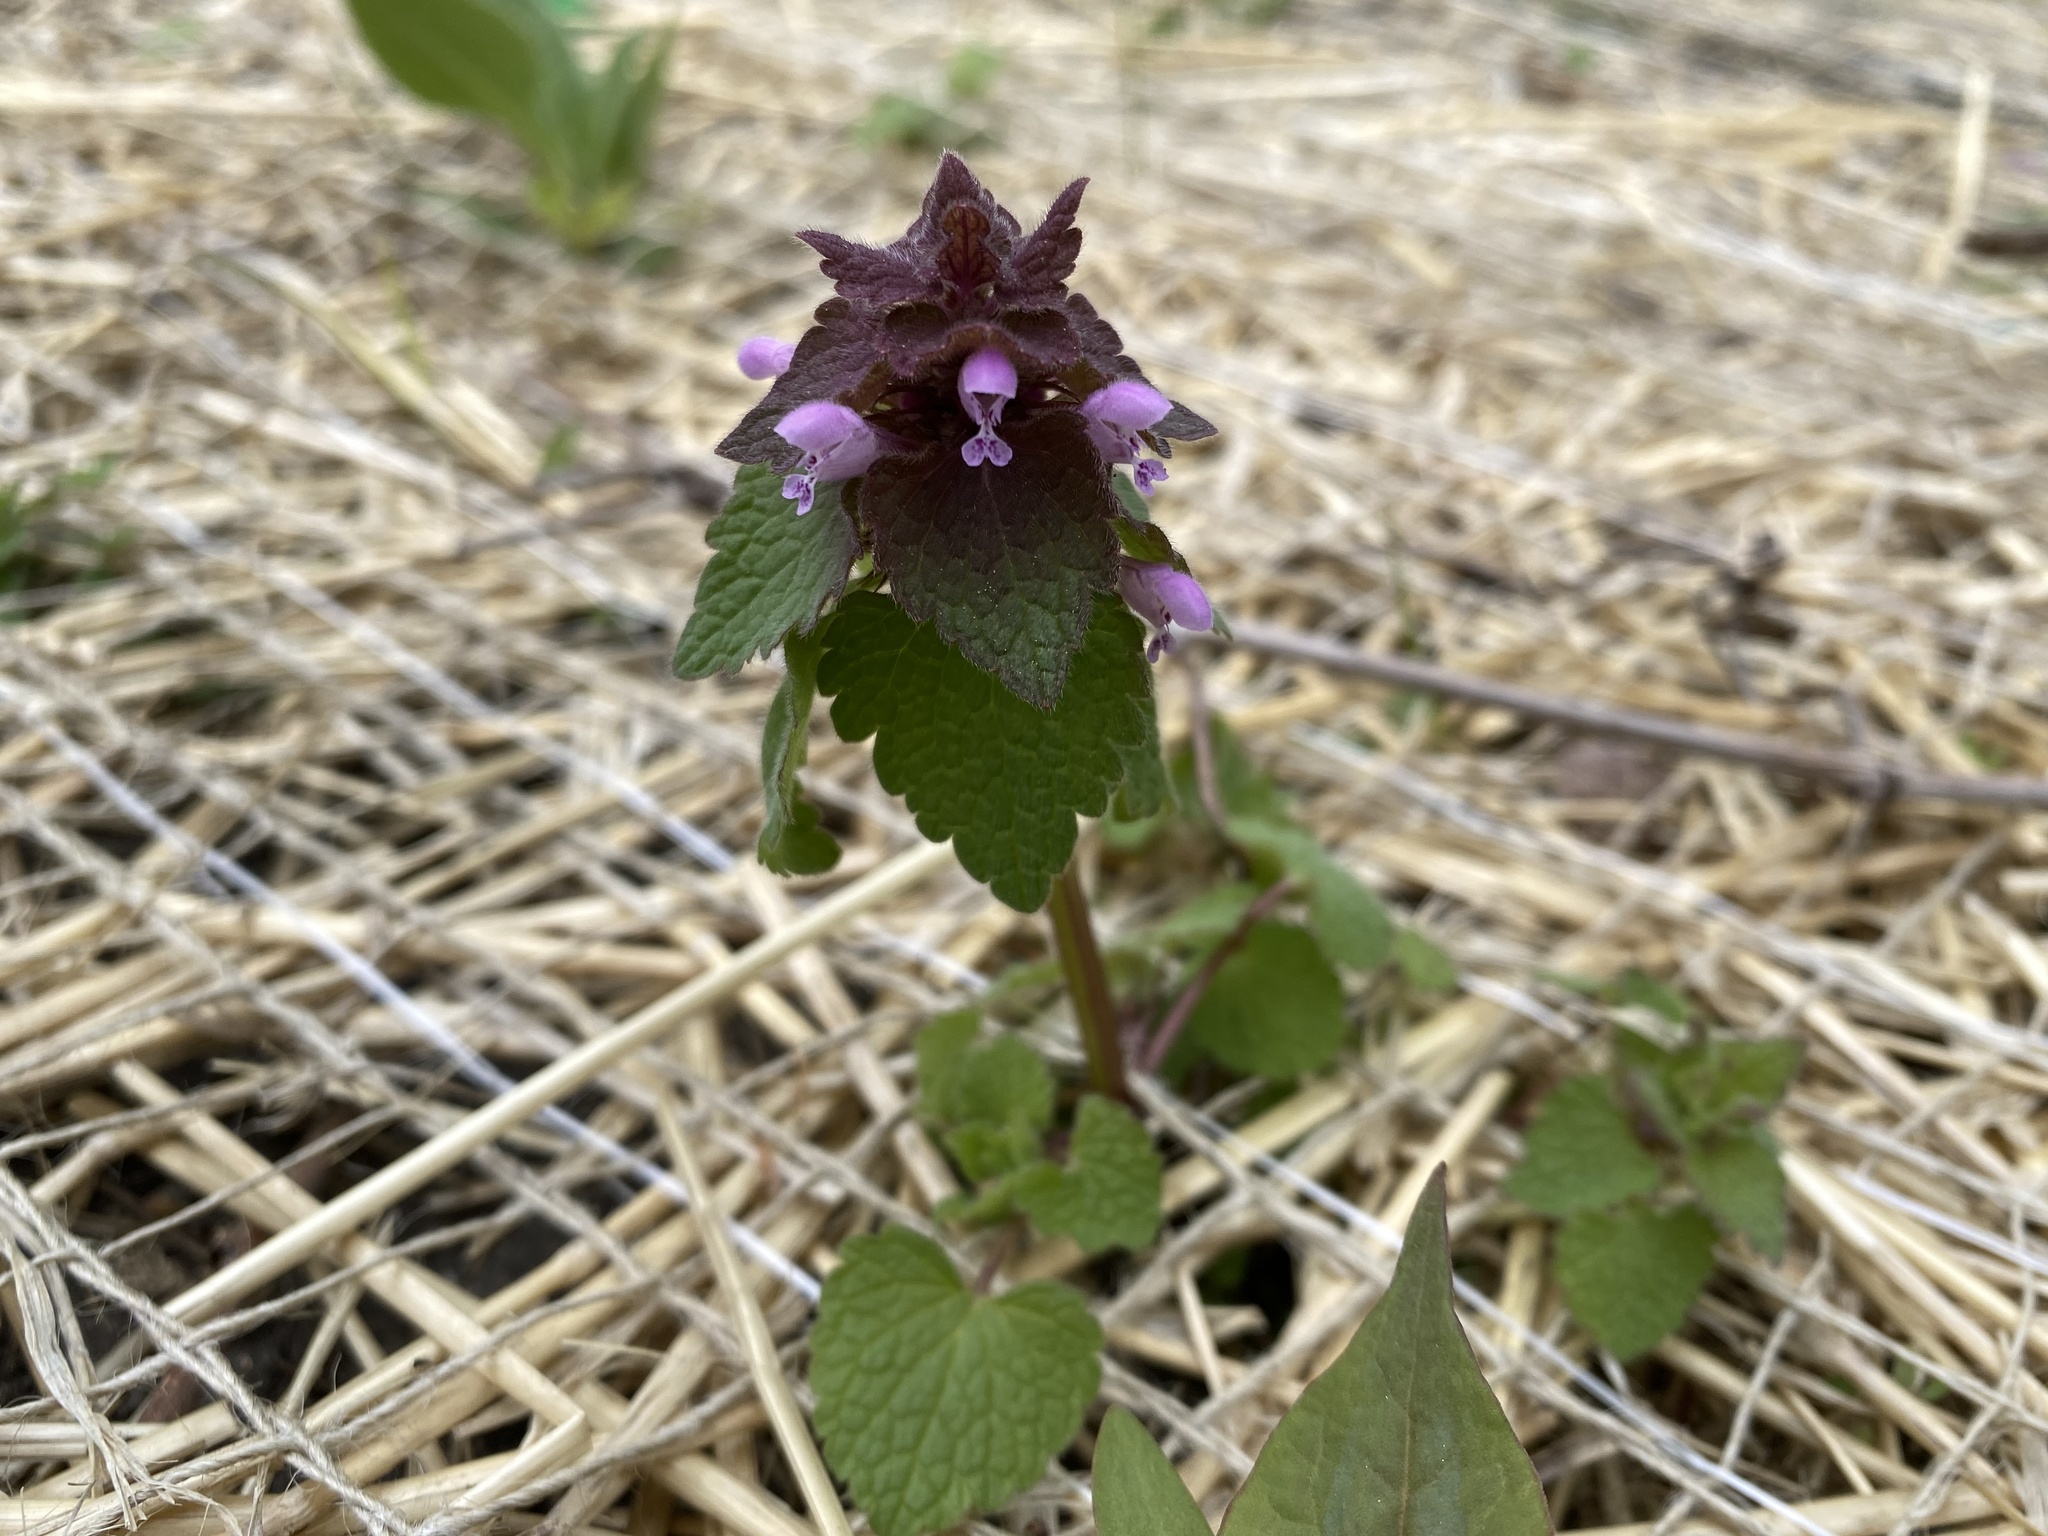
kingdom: Plantae
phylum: Tracheophyta
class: Magnoliopsida
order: Lamiales
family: Lamiaceae
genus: Lamium
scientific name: Lamium purpureum
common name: Red dead-nettle
